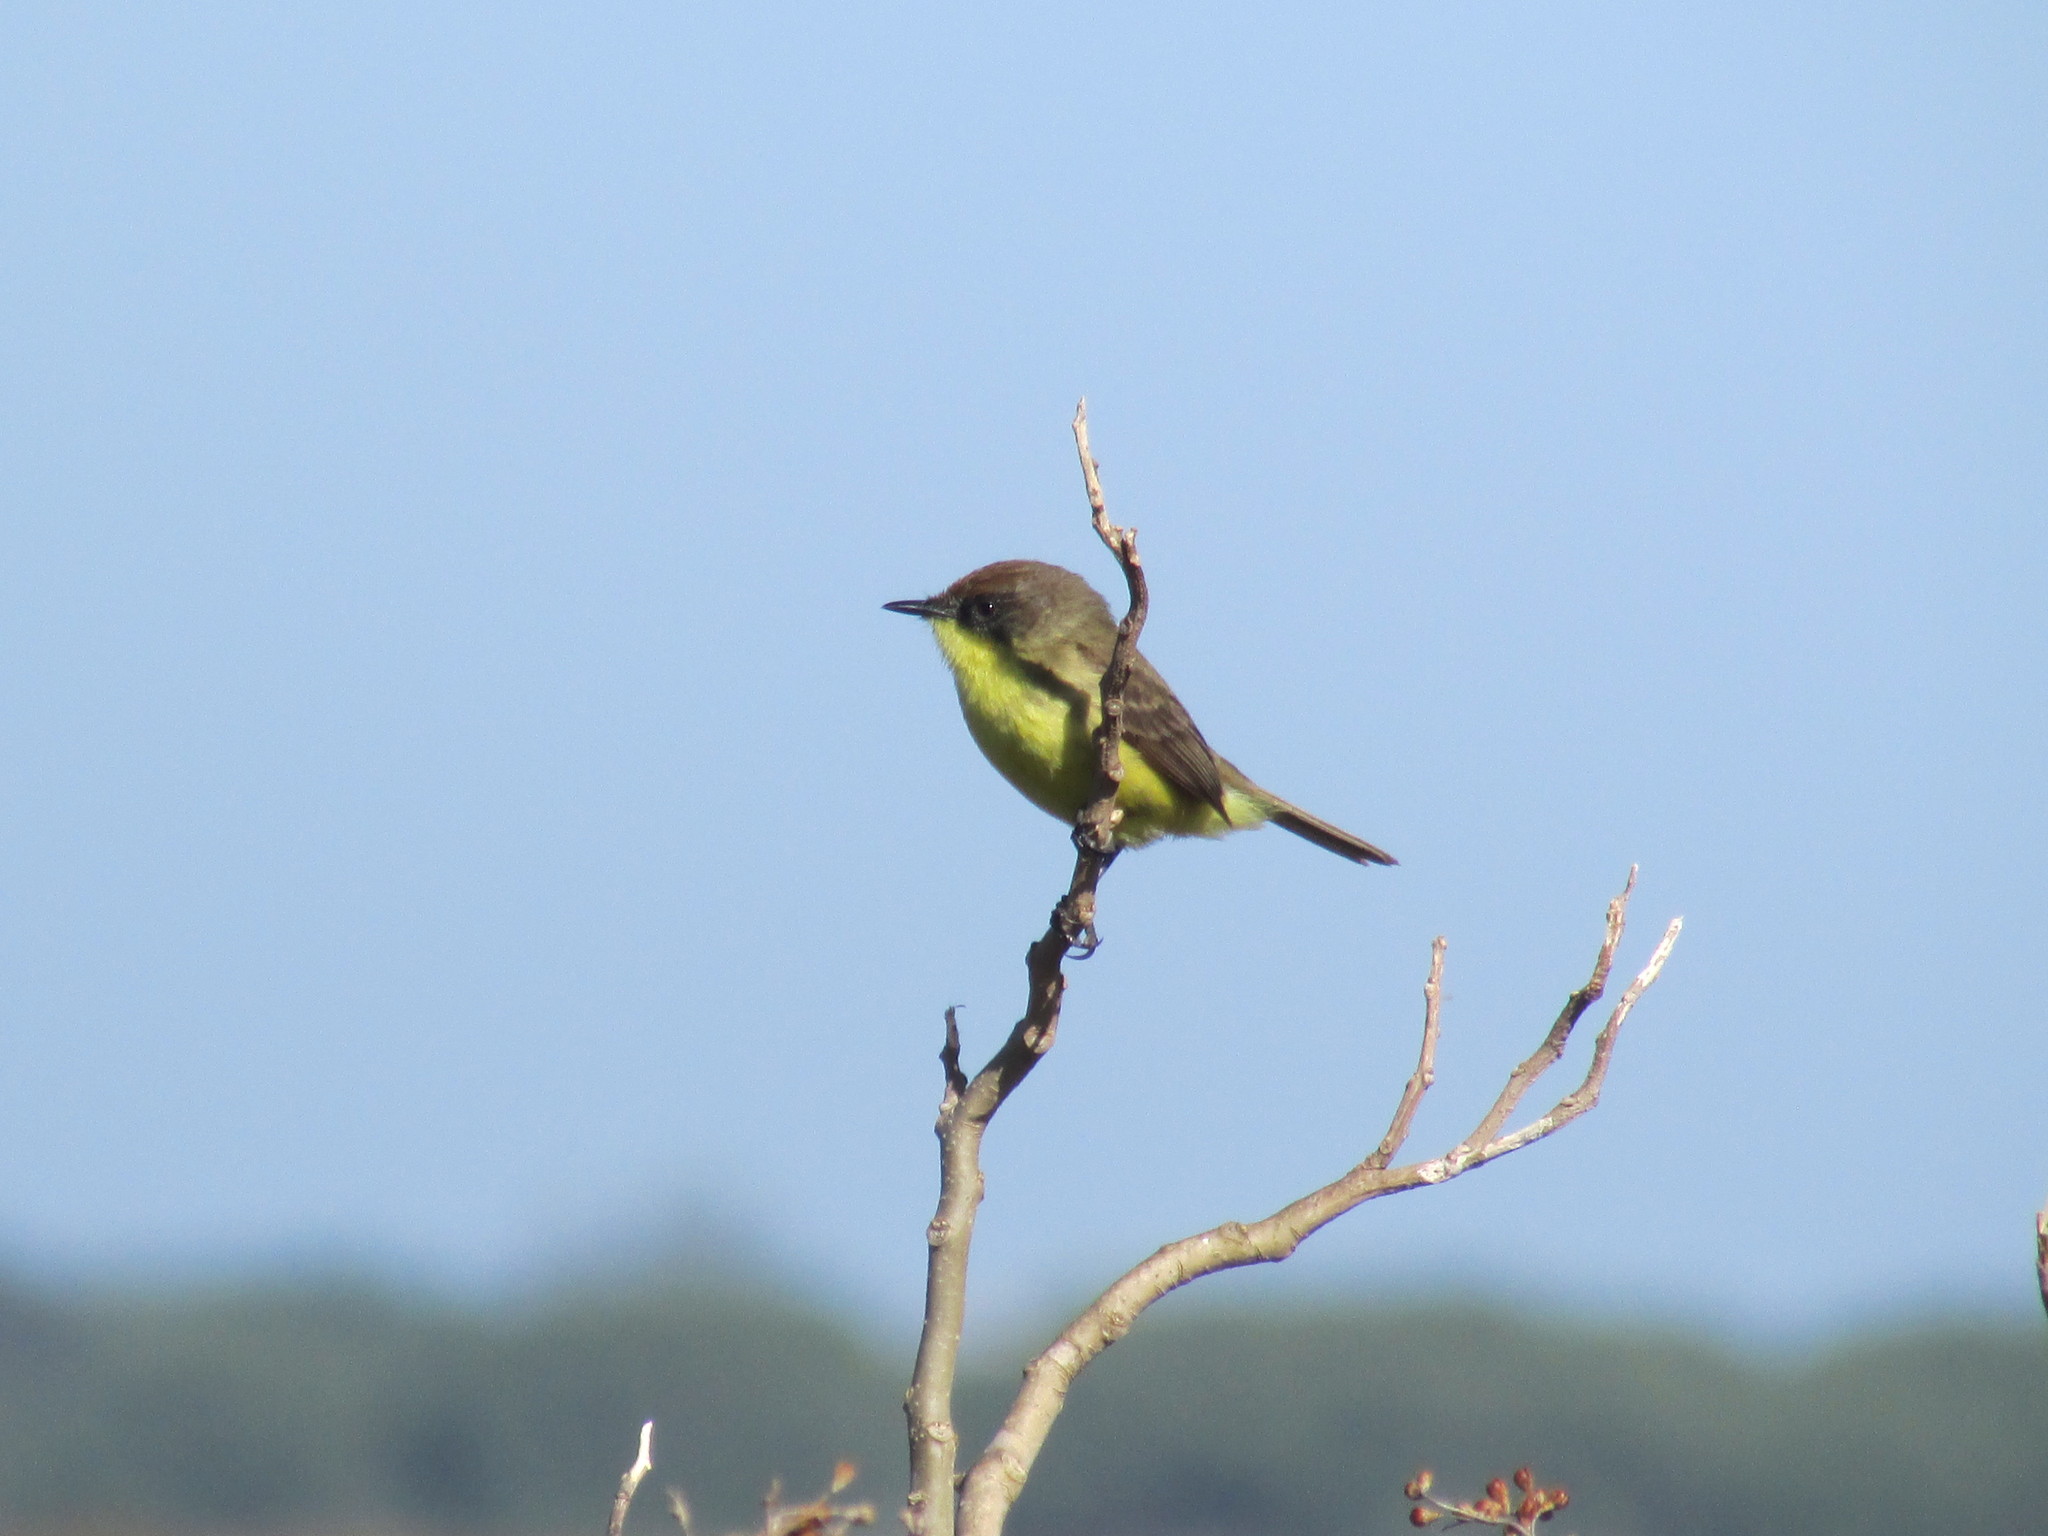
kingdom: Animalia
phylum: Chordata
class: Aves
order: Passeriformes
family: Tyrannidae
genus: Pseudocolopteryx
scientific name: Pseudocolopteryx flaviventris
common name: Warbling doradito
